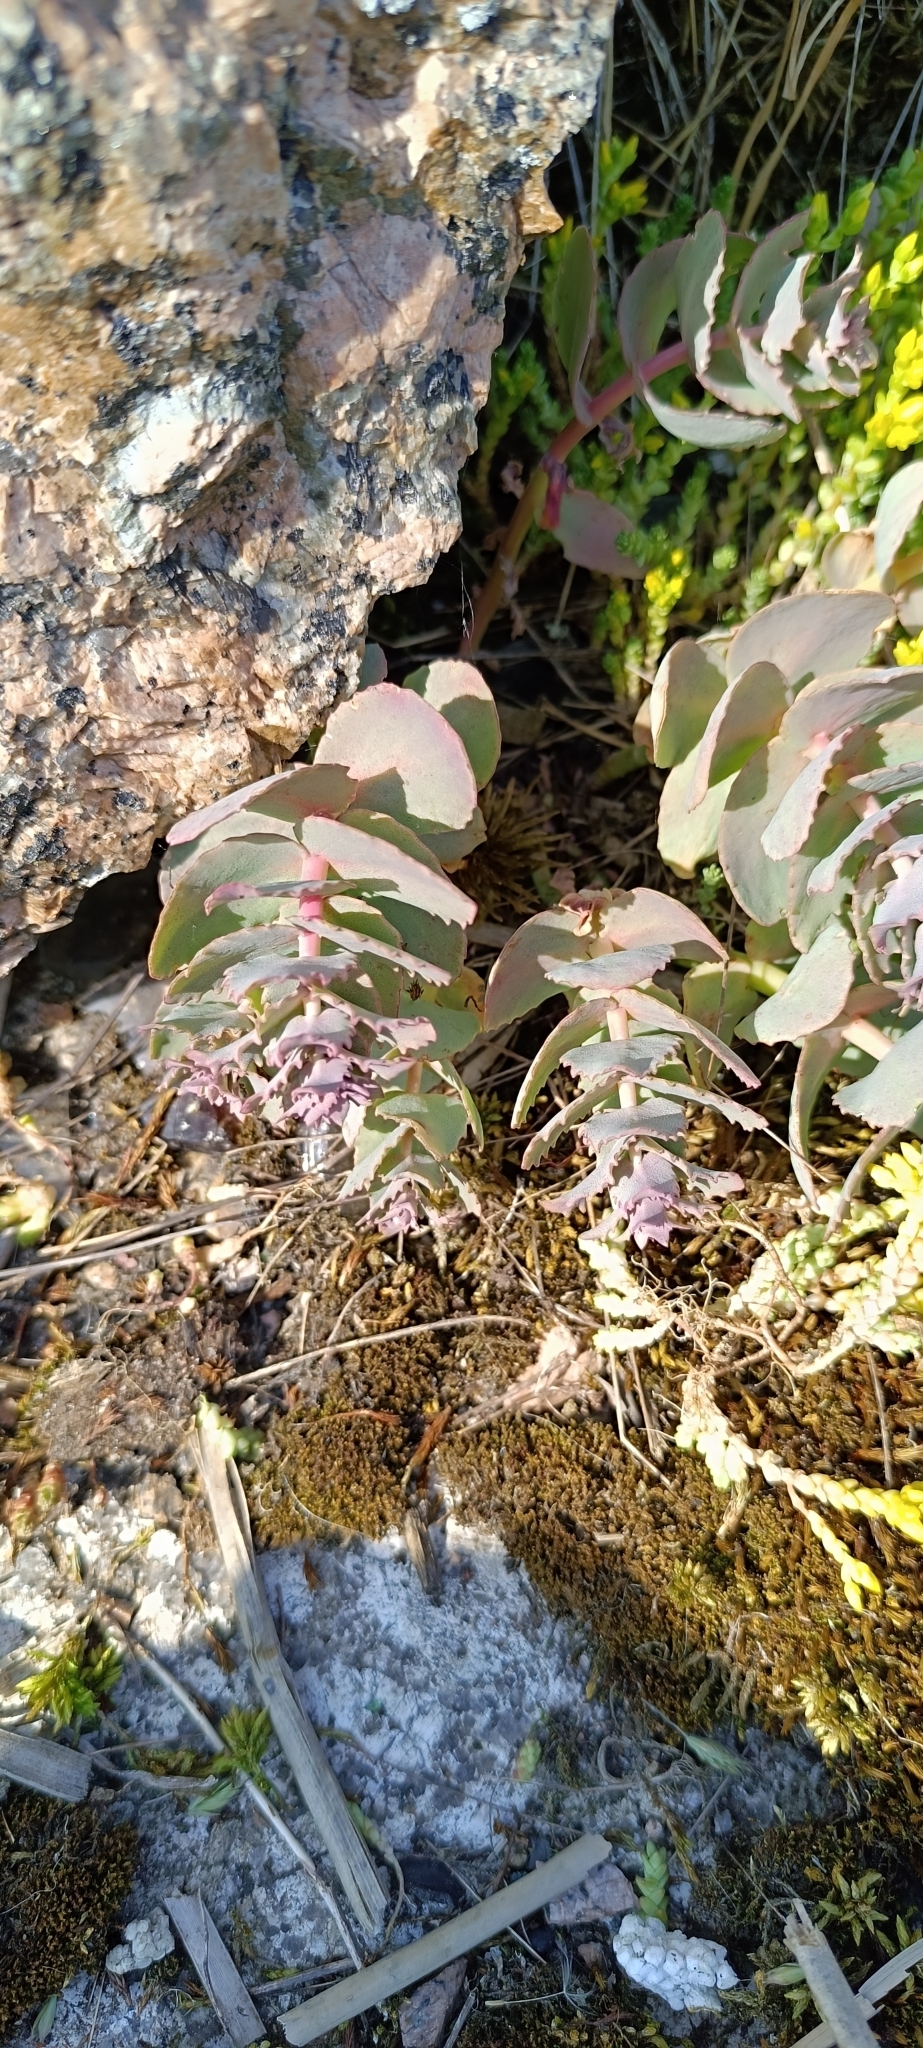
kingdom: Plantae
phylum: Tracheophyta
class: Magnoliopsida
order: Saxifragales
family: Crassulaceae
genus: Hylotelephium
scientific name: Hylotelephium maximum
